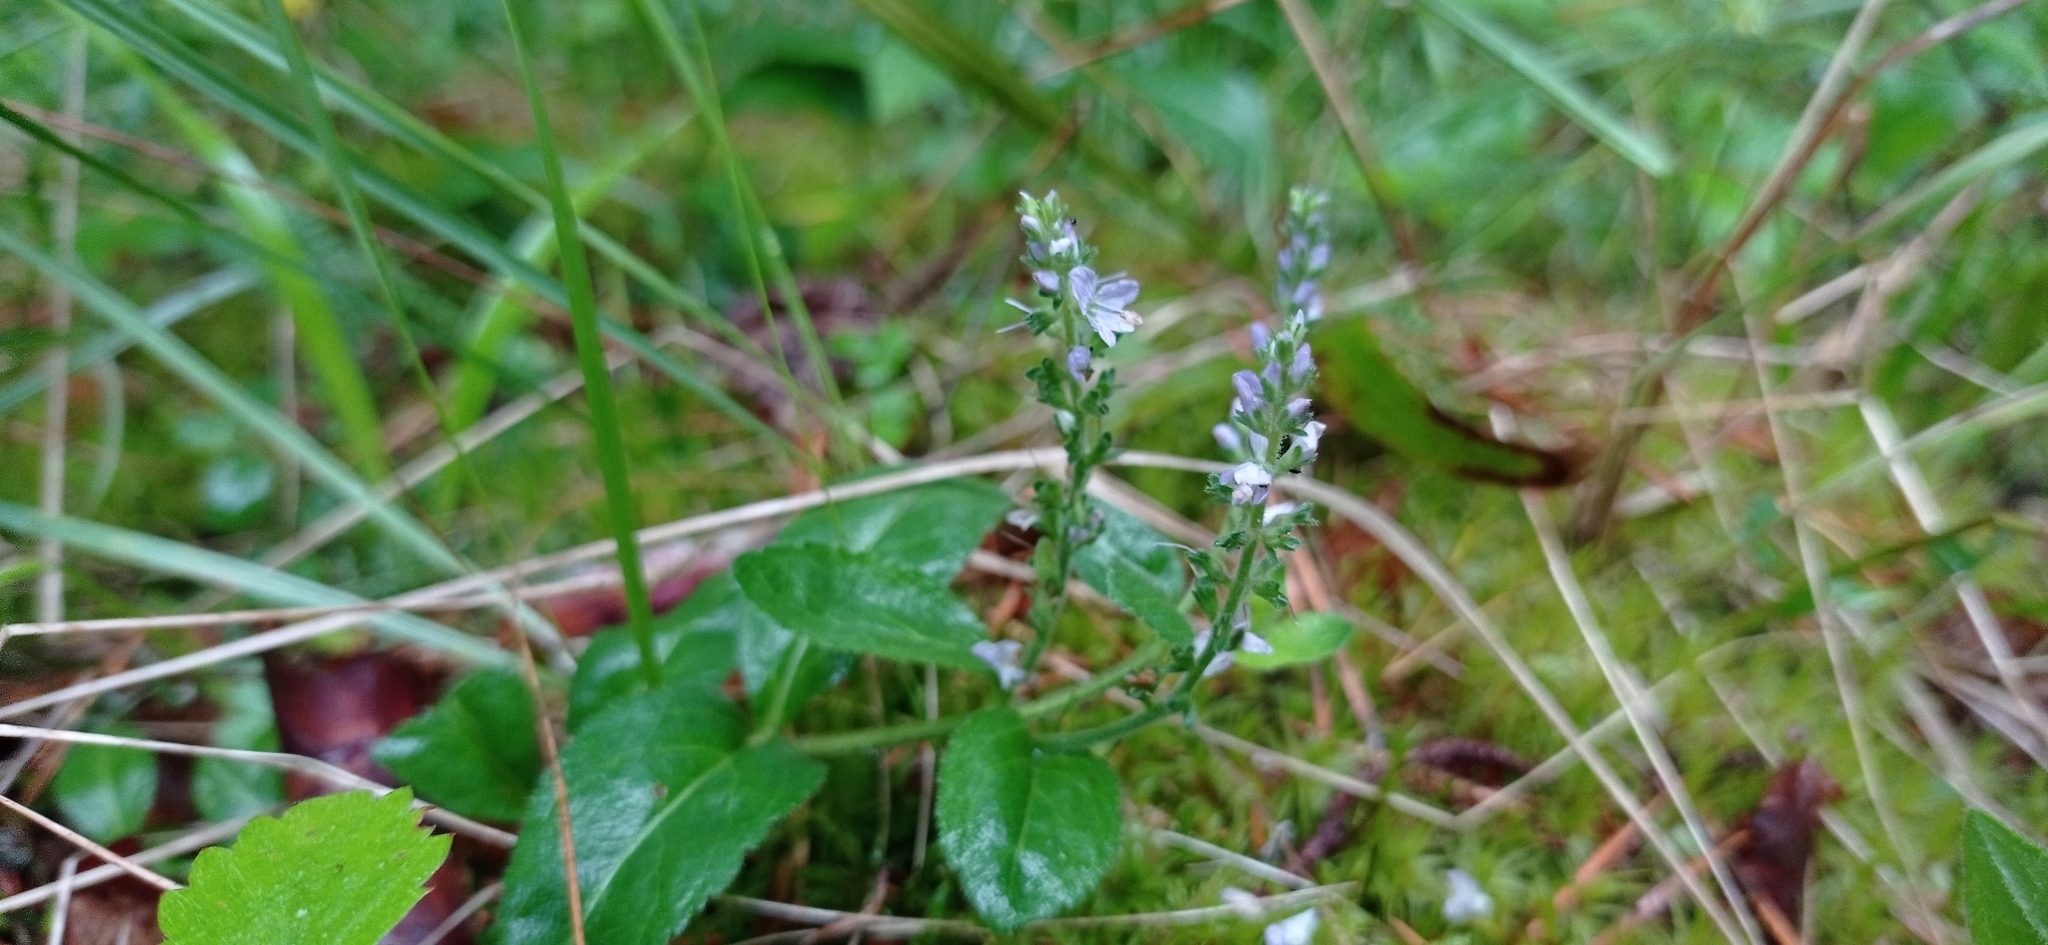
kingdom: Plantae
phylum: Tracheophyta
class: Magnoliopsida
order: Lamiales
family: Plantaginaceae
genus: Veronica
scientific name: Veronica officinalis
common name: Common speedwell
